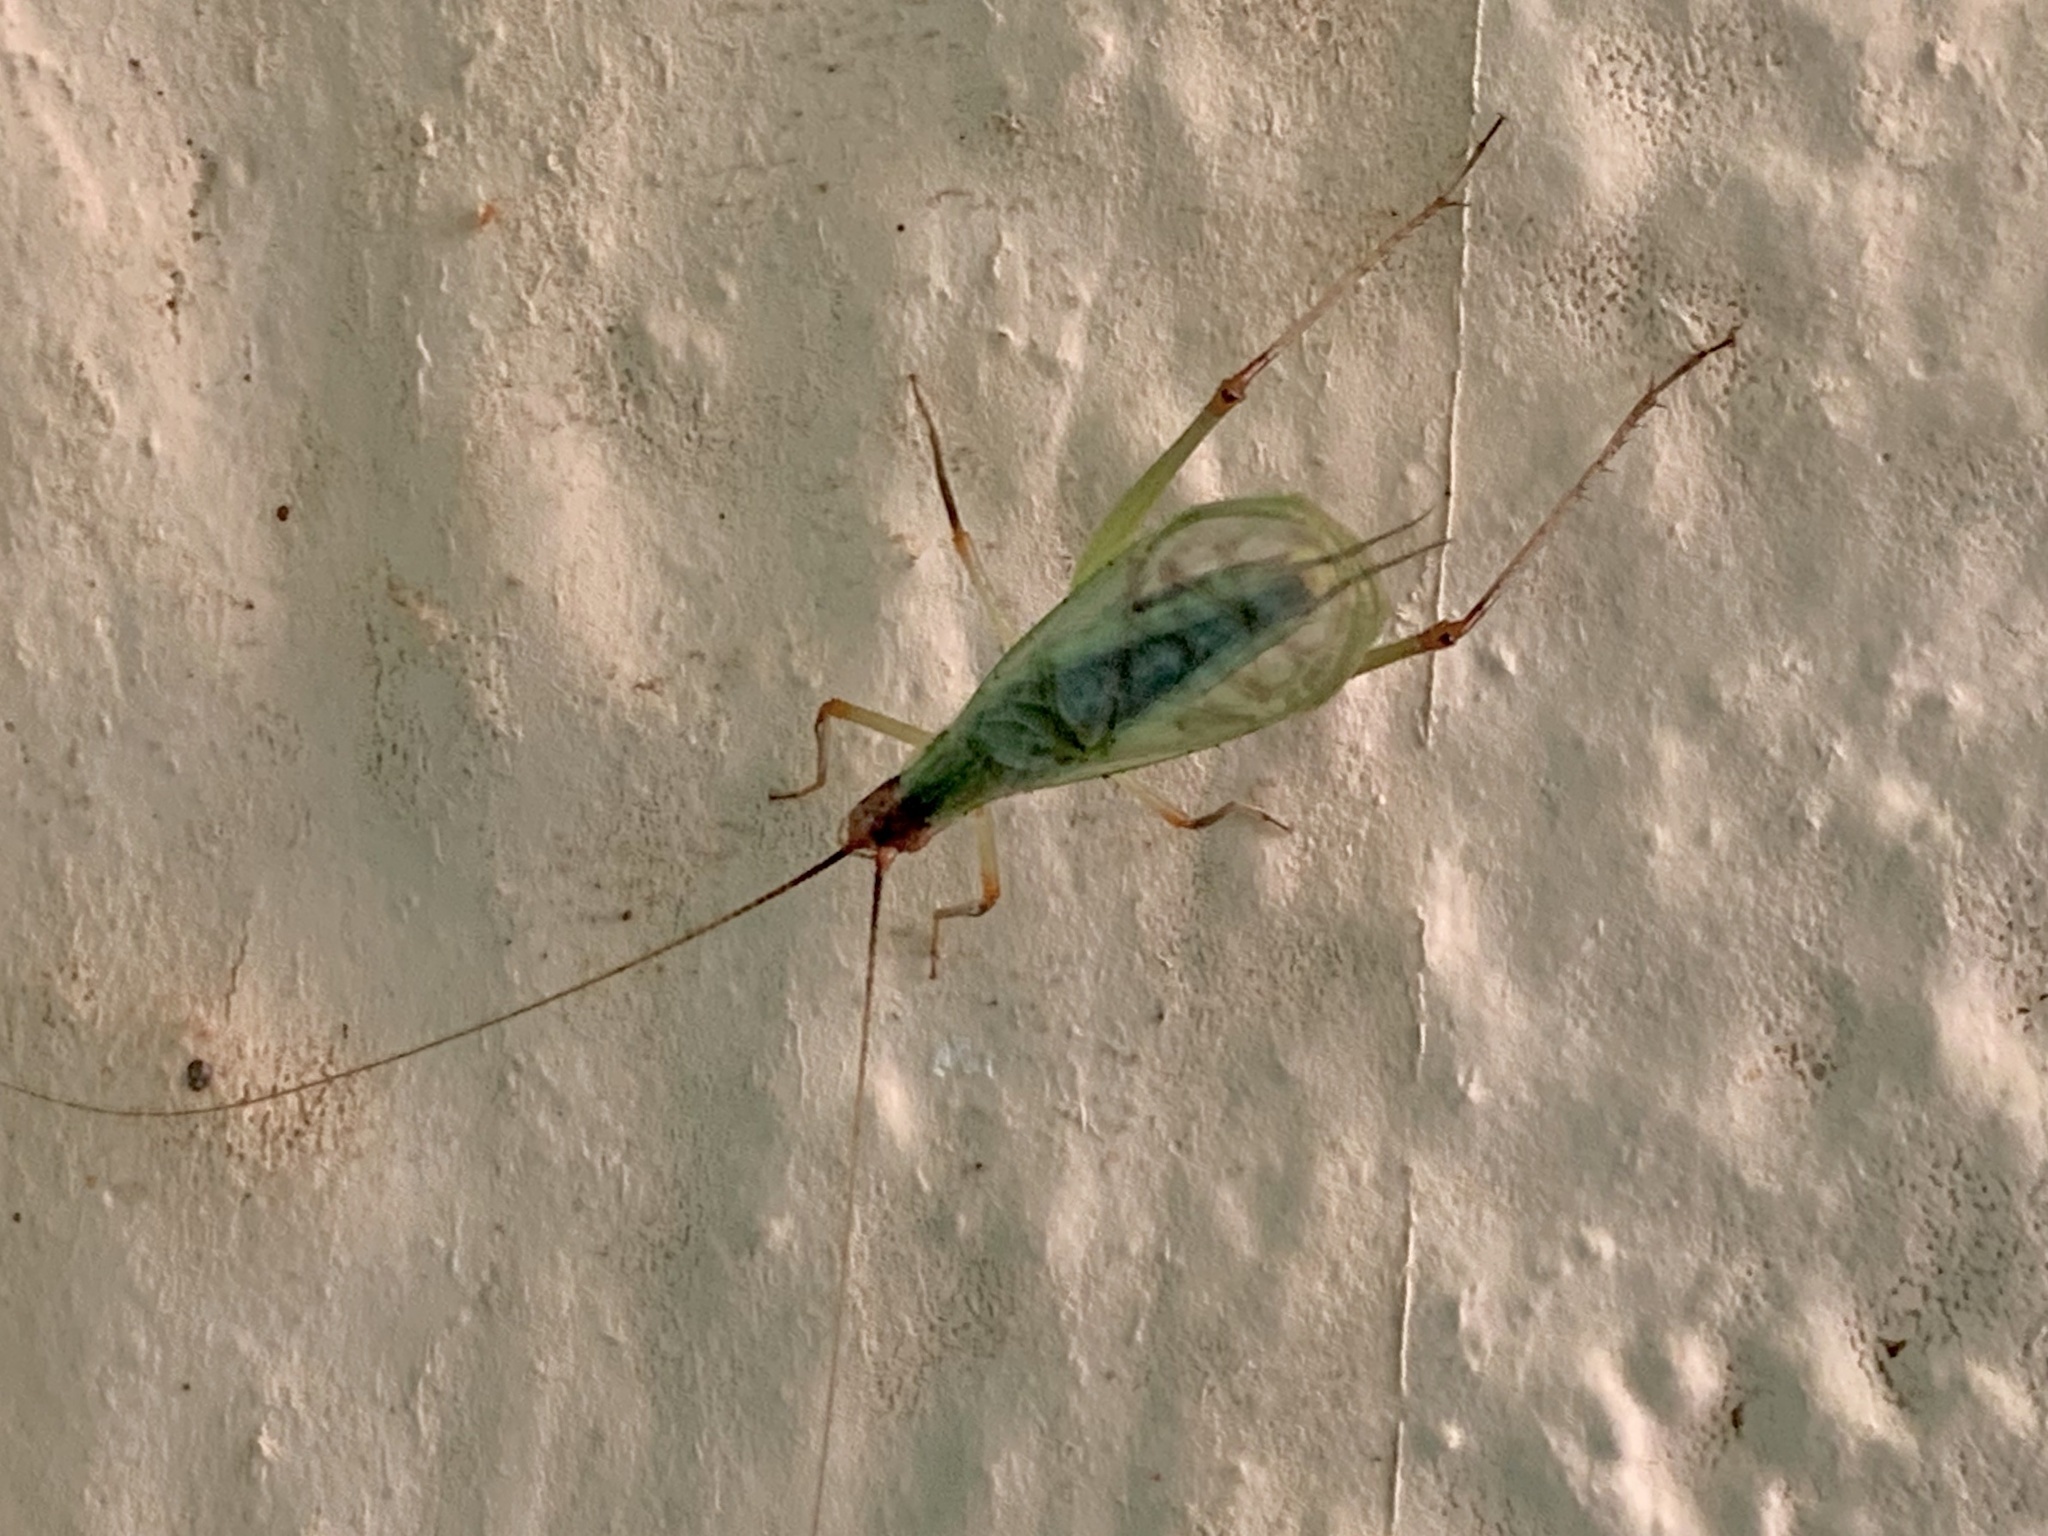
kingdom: Animalia
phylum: Arthropoda
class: Insecta
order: Orthoptera
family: Gryllidae
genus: Oecanthus
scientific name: Oecanthus californicus
